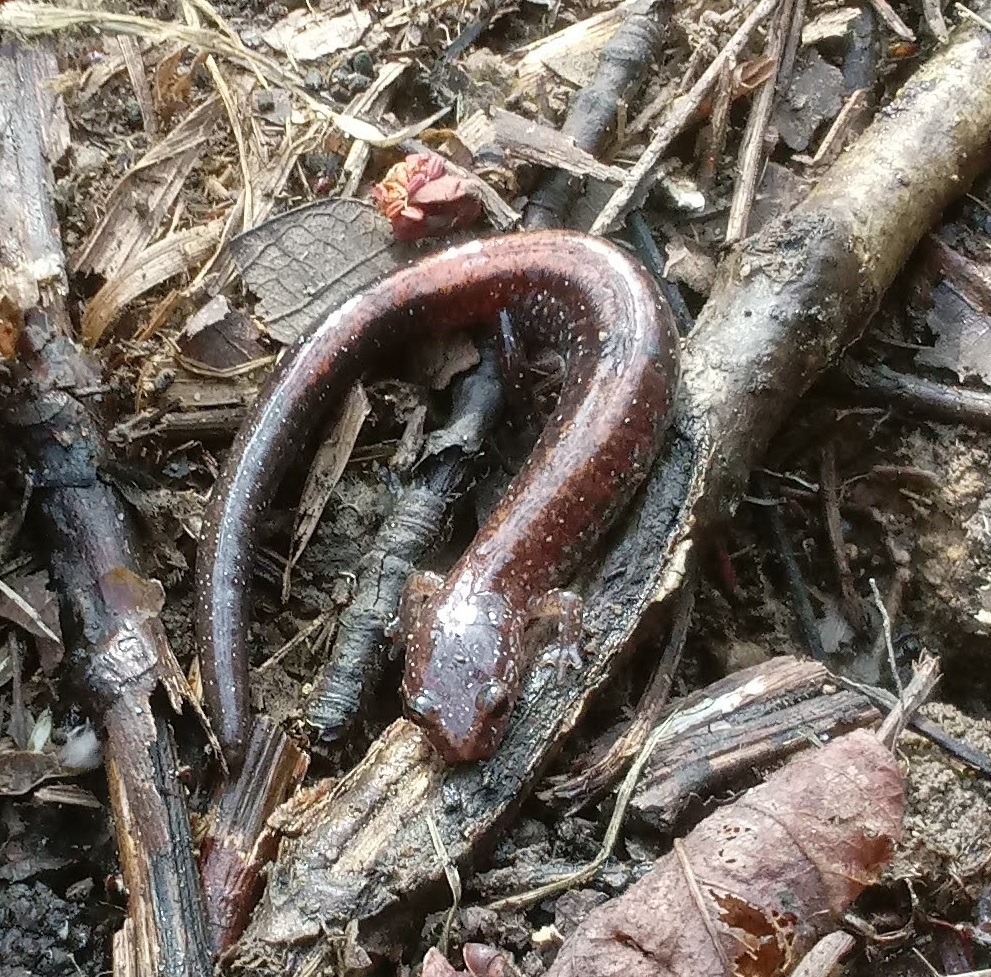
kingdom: Animalia
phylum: Chordata
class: Amphibia
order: Caudata
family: Plethodontidae
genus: Plethodon
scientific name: Plethodon cinereus
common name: Redback salamander
